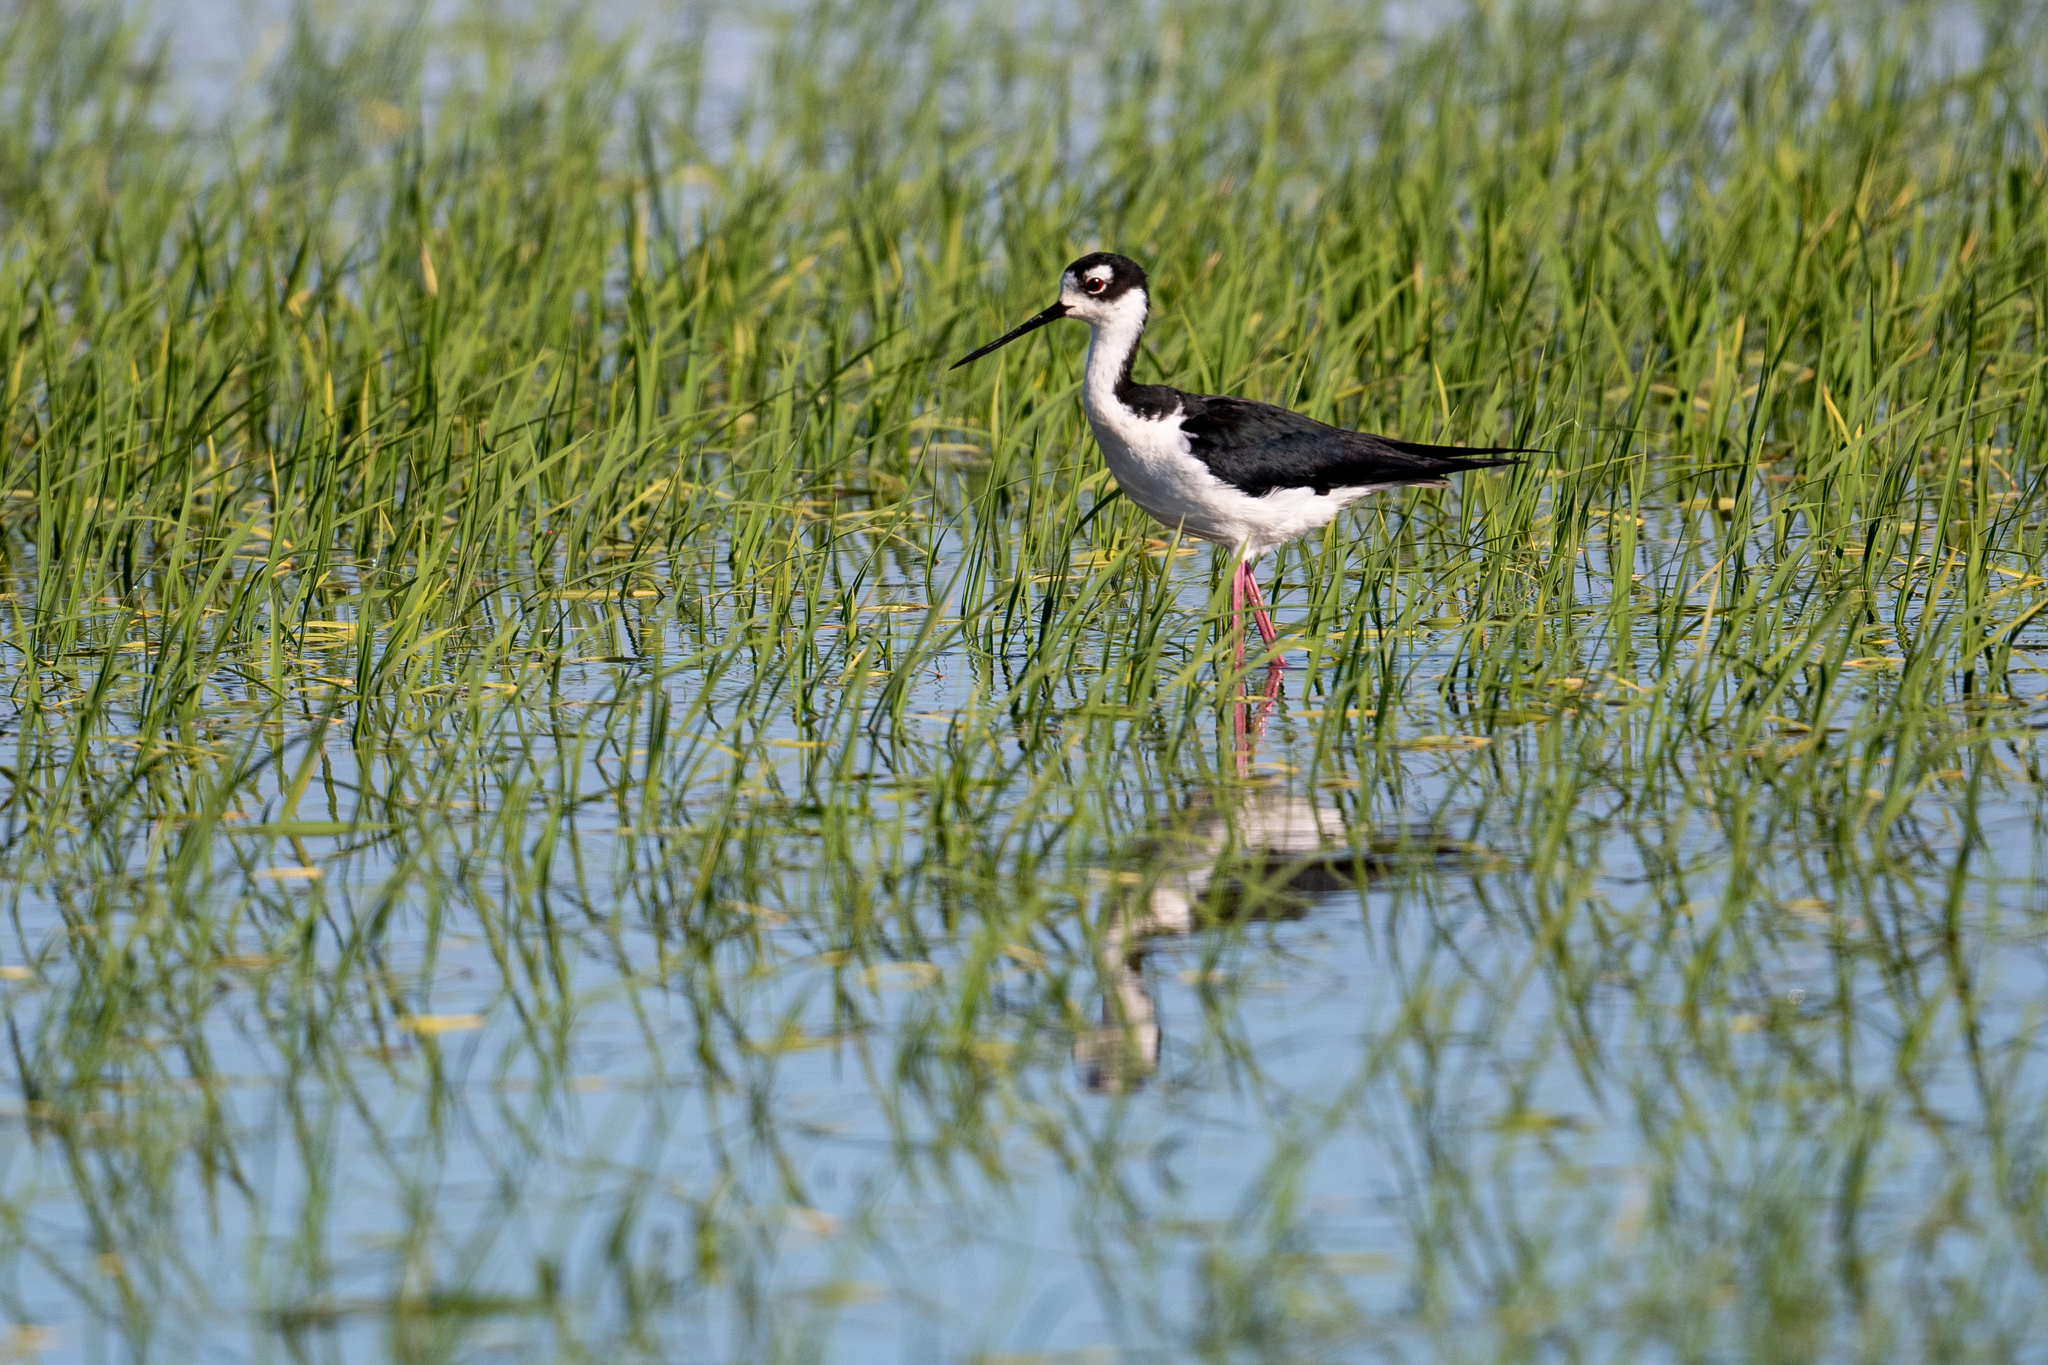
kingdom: Animalia
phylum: Chordata
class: Aves
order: Charadriiformes
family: Recurvirostridae
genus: Himantopus
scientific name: Himantopus mexicanus
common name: Black-necked stilt
